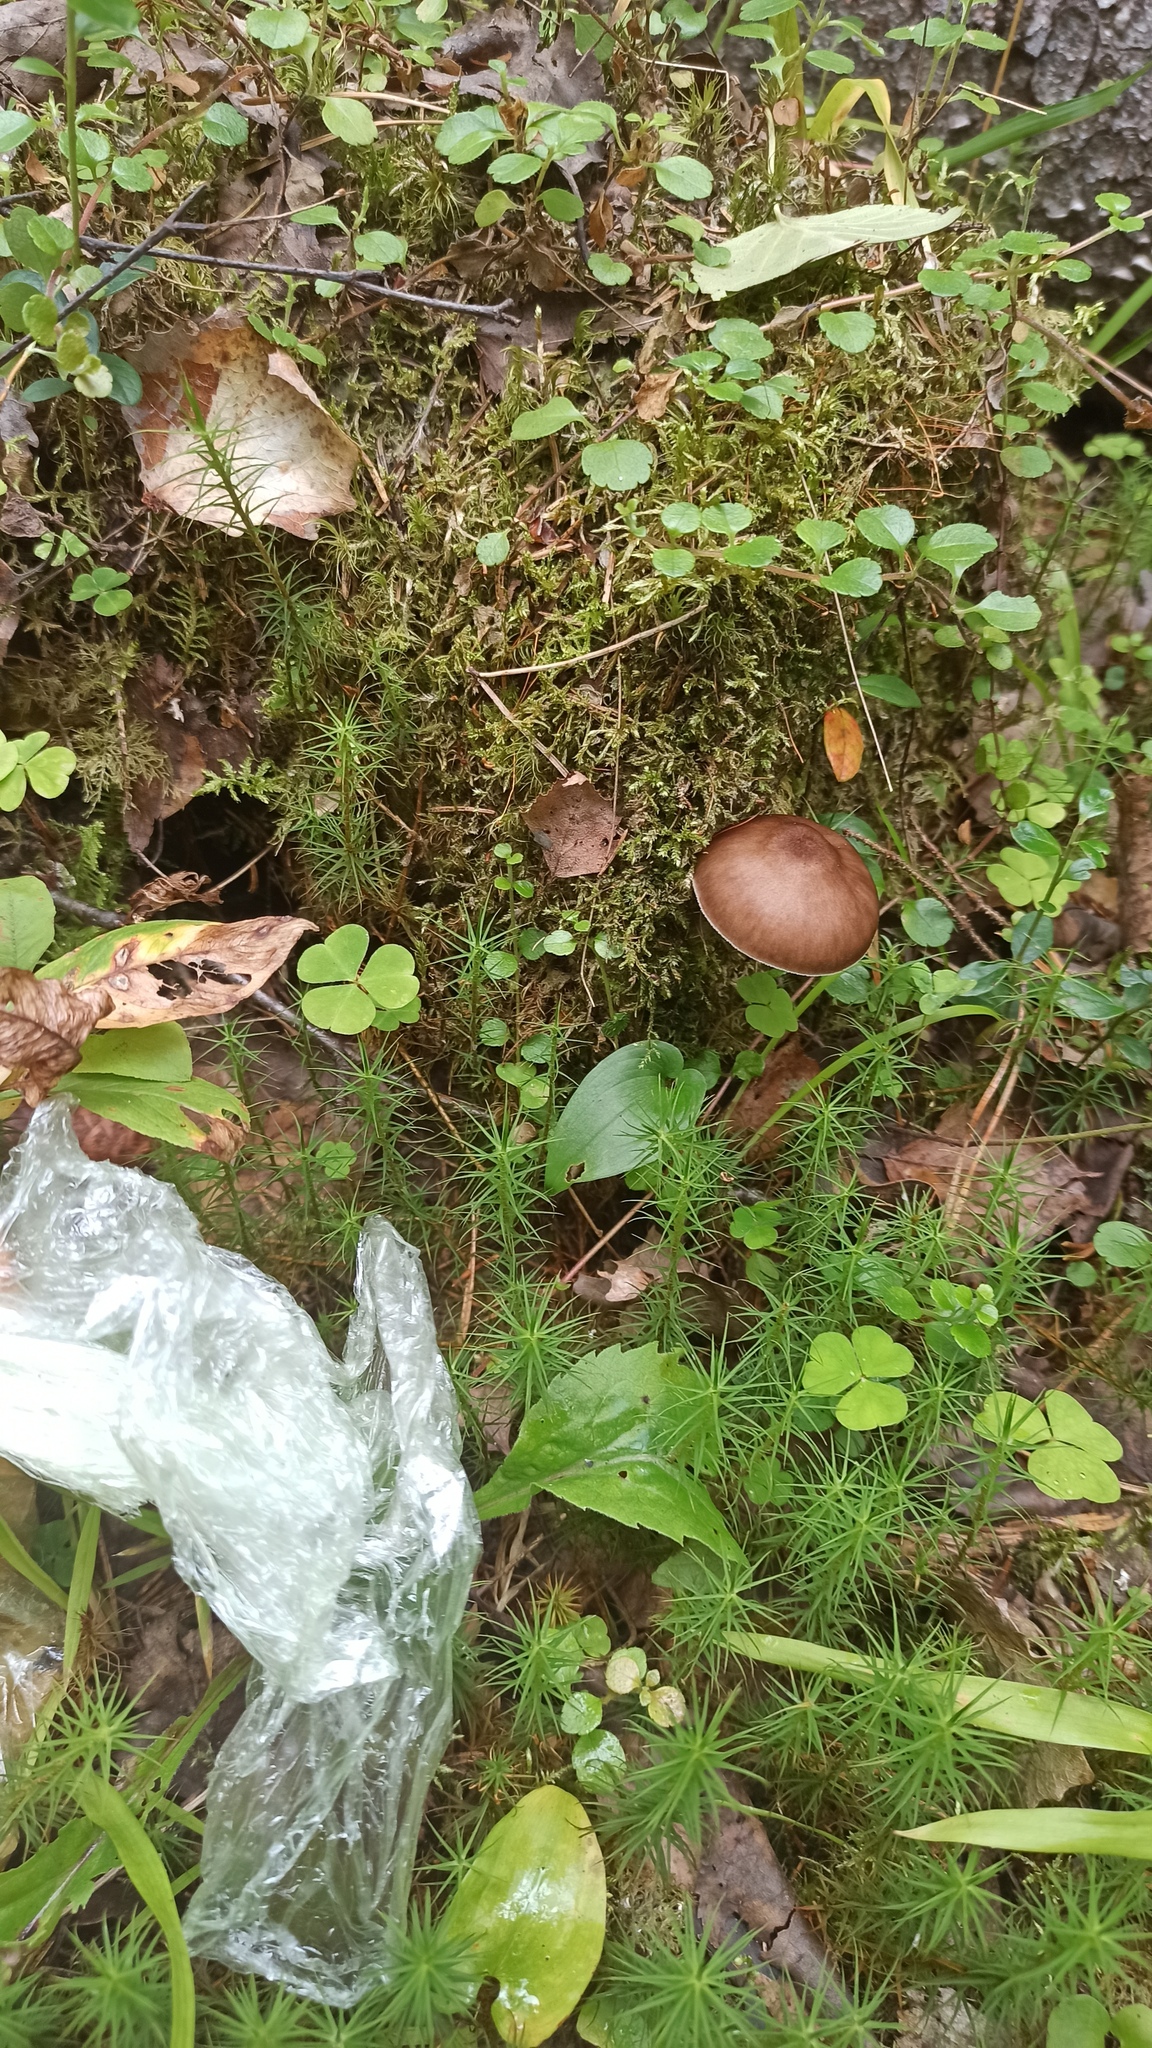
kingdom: Fungi
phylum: Basidiomycota
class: Agaricomycetes
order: Agaricales
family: Pluteaceae
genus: Pluteus
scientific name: Pluteus cervinus
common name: Deer shield
